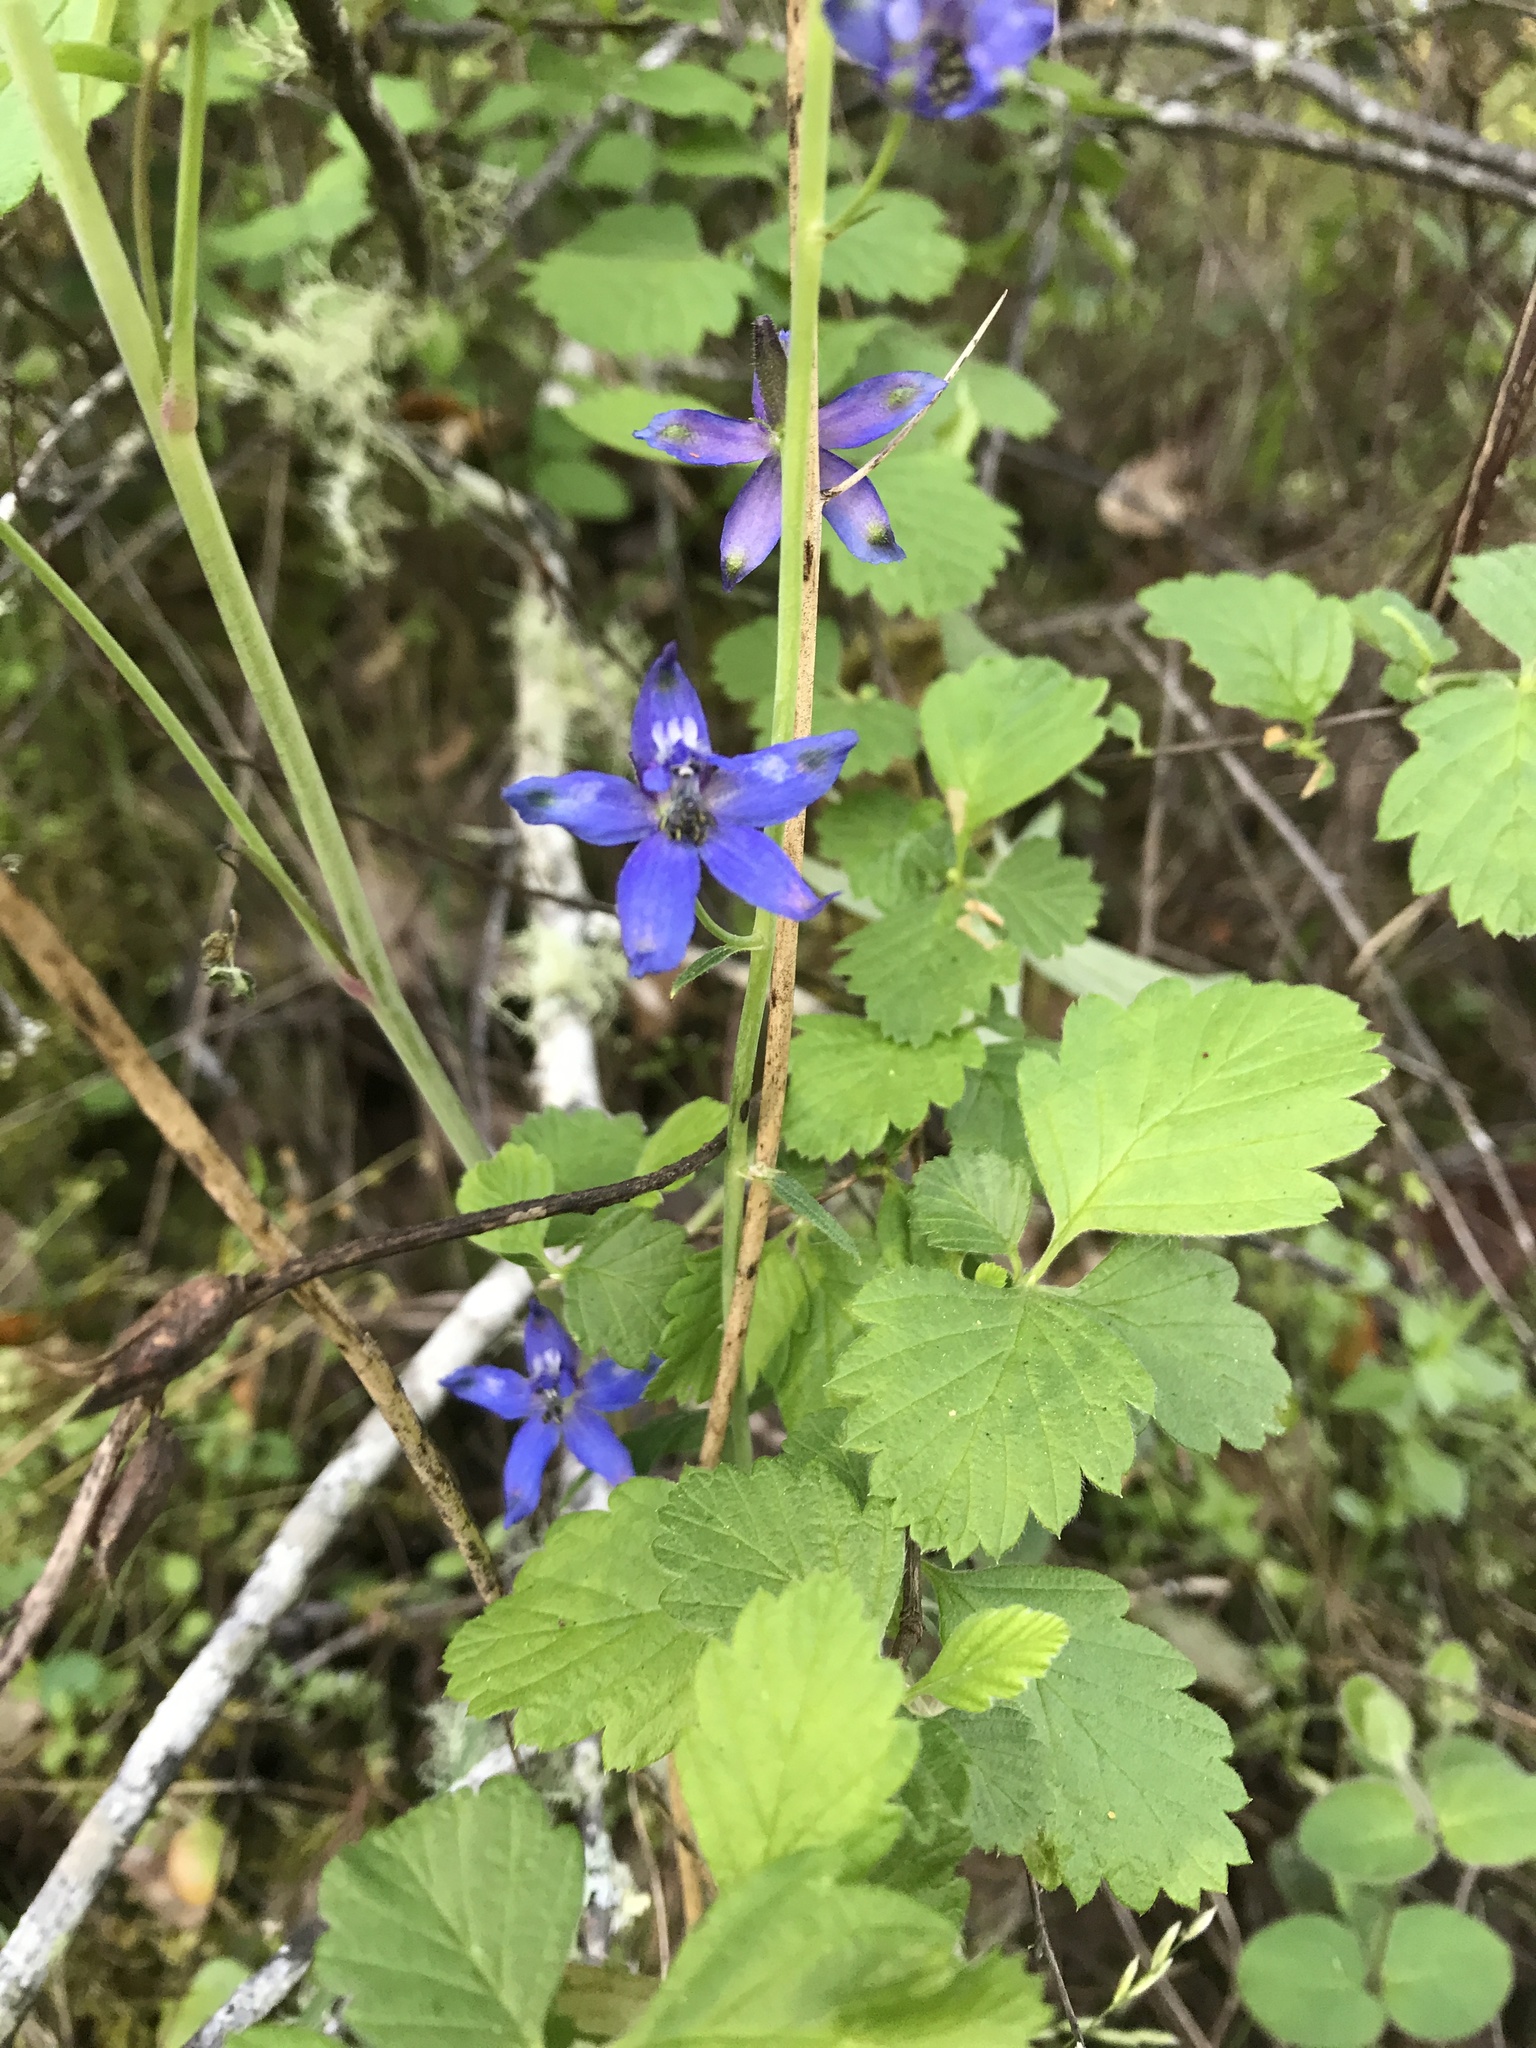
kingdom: Plantae
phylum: Tracheophyta
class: Magnoliopsida
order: Ranunculales
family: Ranunculaceae
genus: Delphinium
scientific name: Delphinium patens
